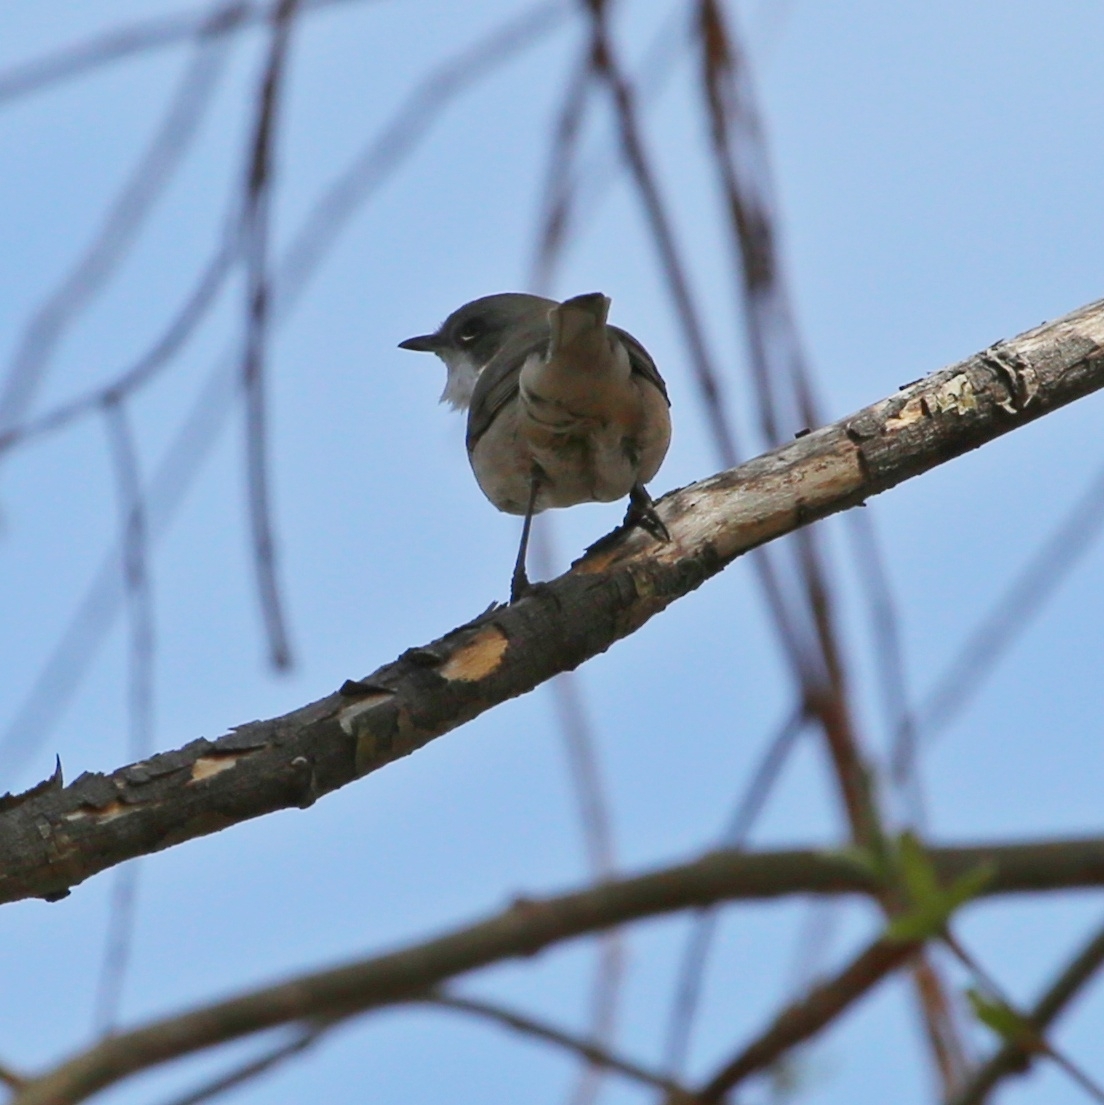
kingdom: Animalia
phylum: Chordata
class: Aves
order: Passeriformes
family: Sylviidae
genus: Sylvia
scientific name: Sylvia curruca
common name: Lesser whitethroat
